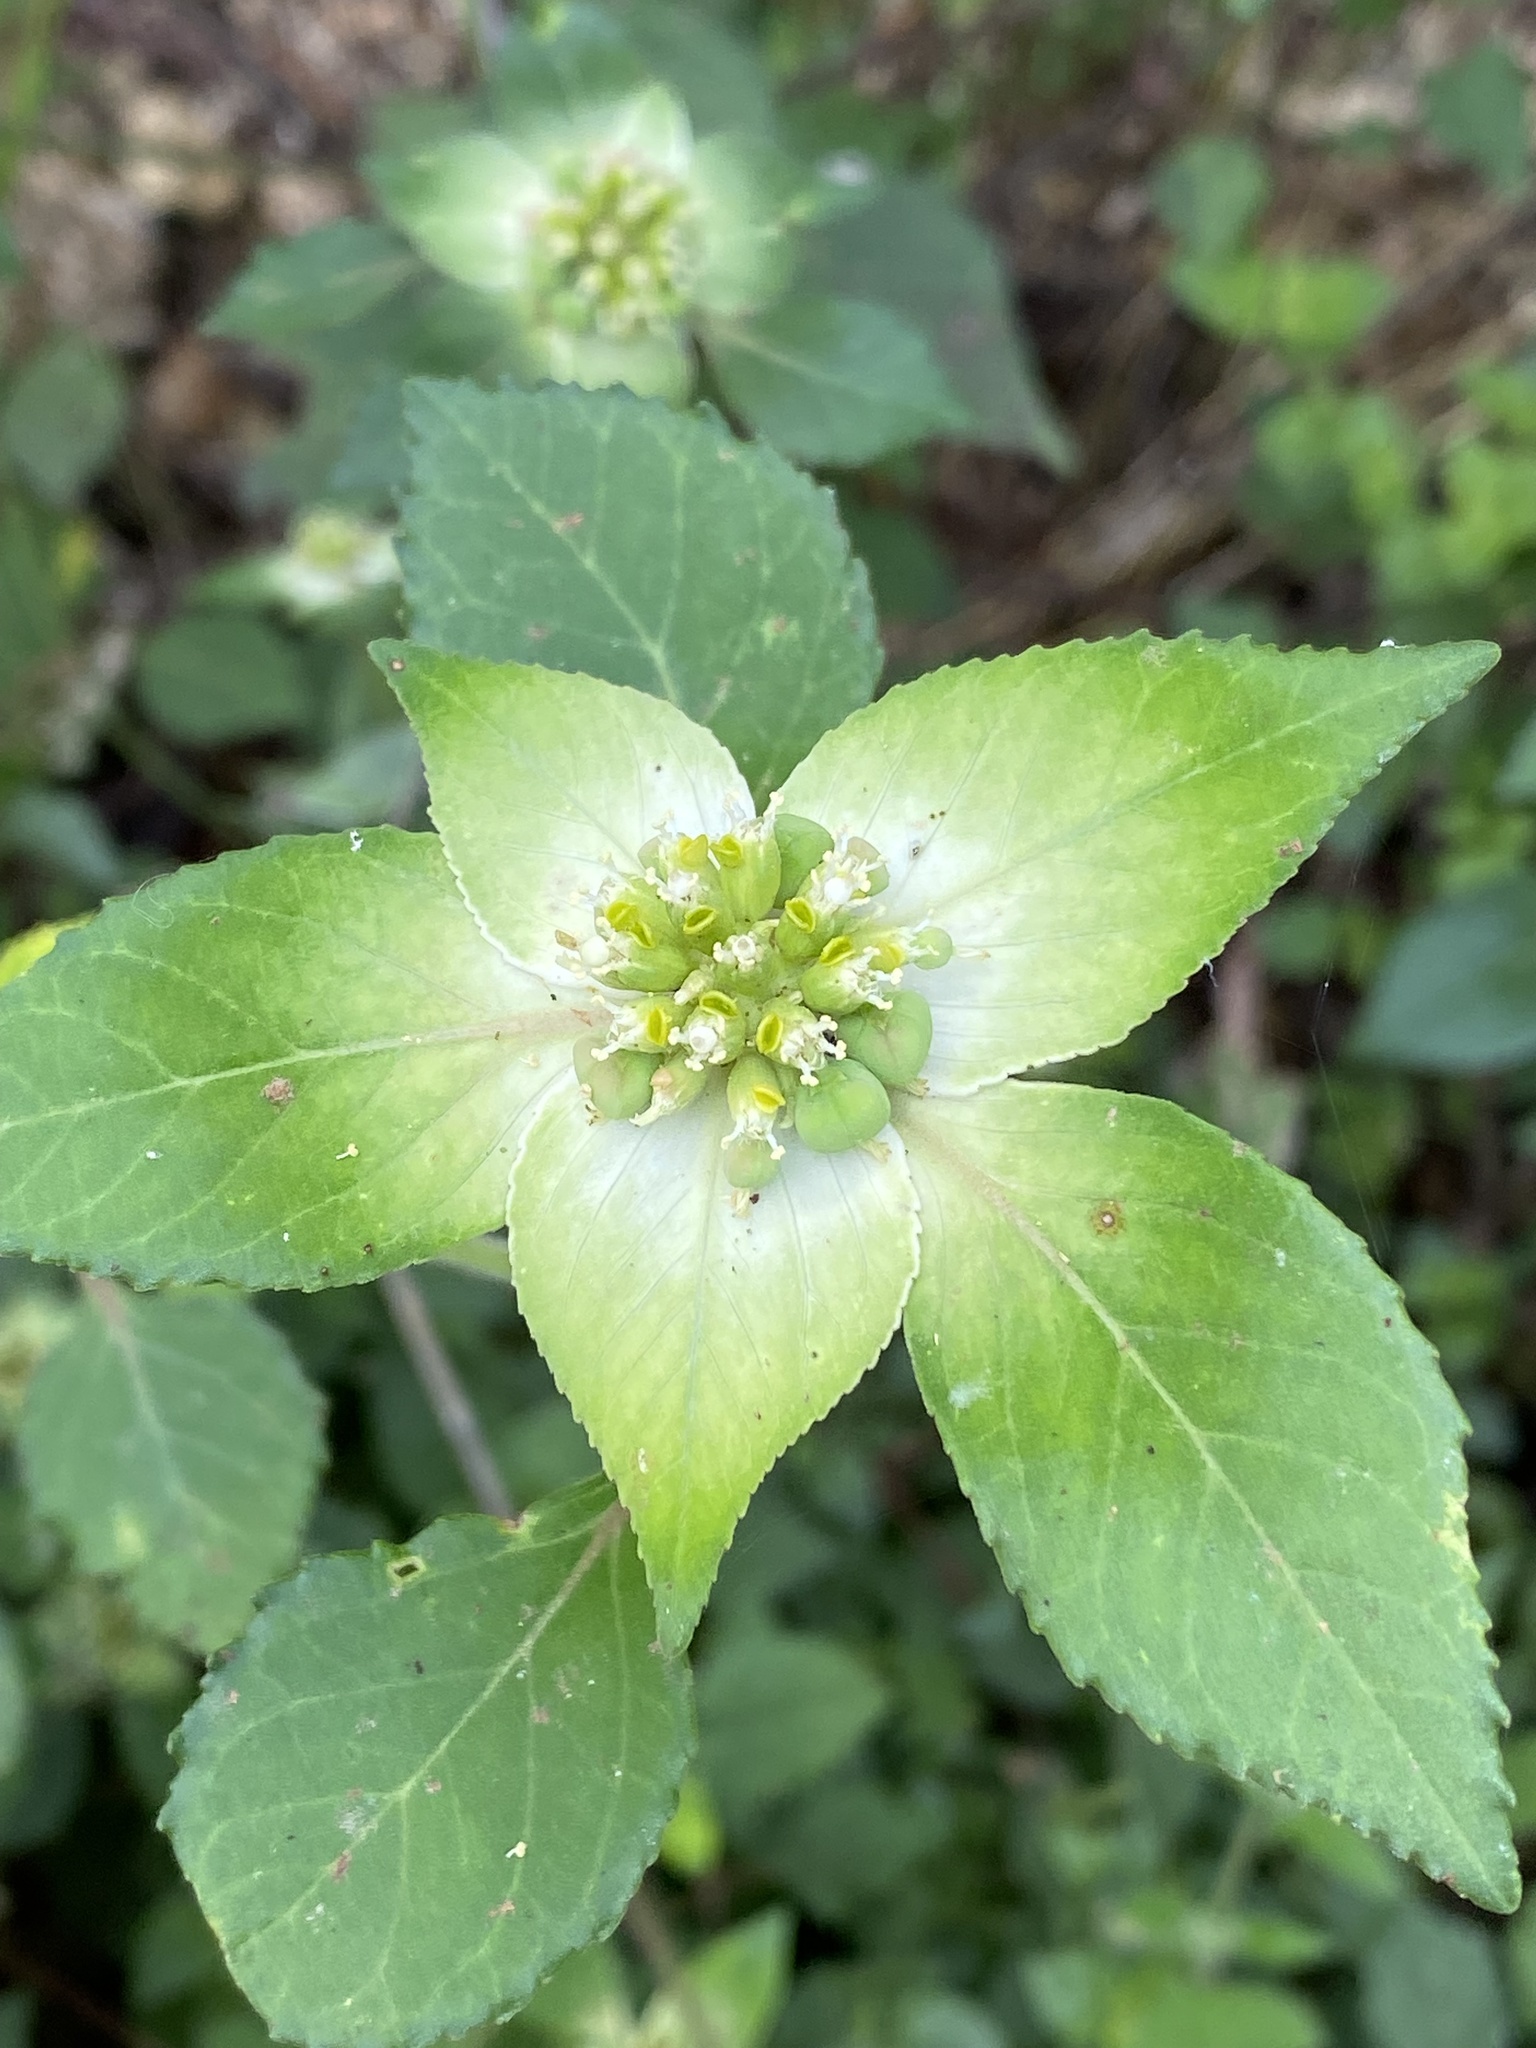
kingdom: Plantae
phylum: Tracheophyta
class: Magnoliopsida
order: Malpighiales
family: Euphorbiaceae
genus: Euphorbia
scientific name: Euphorbia schiedeana
